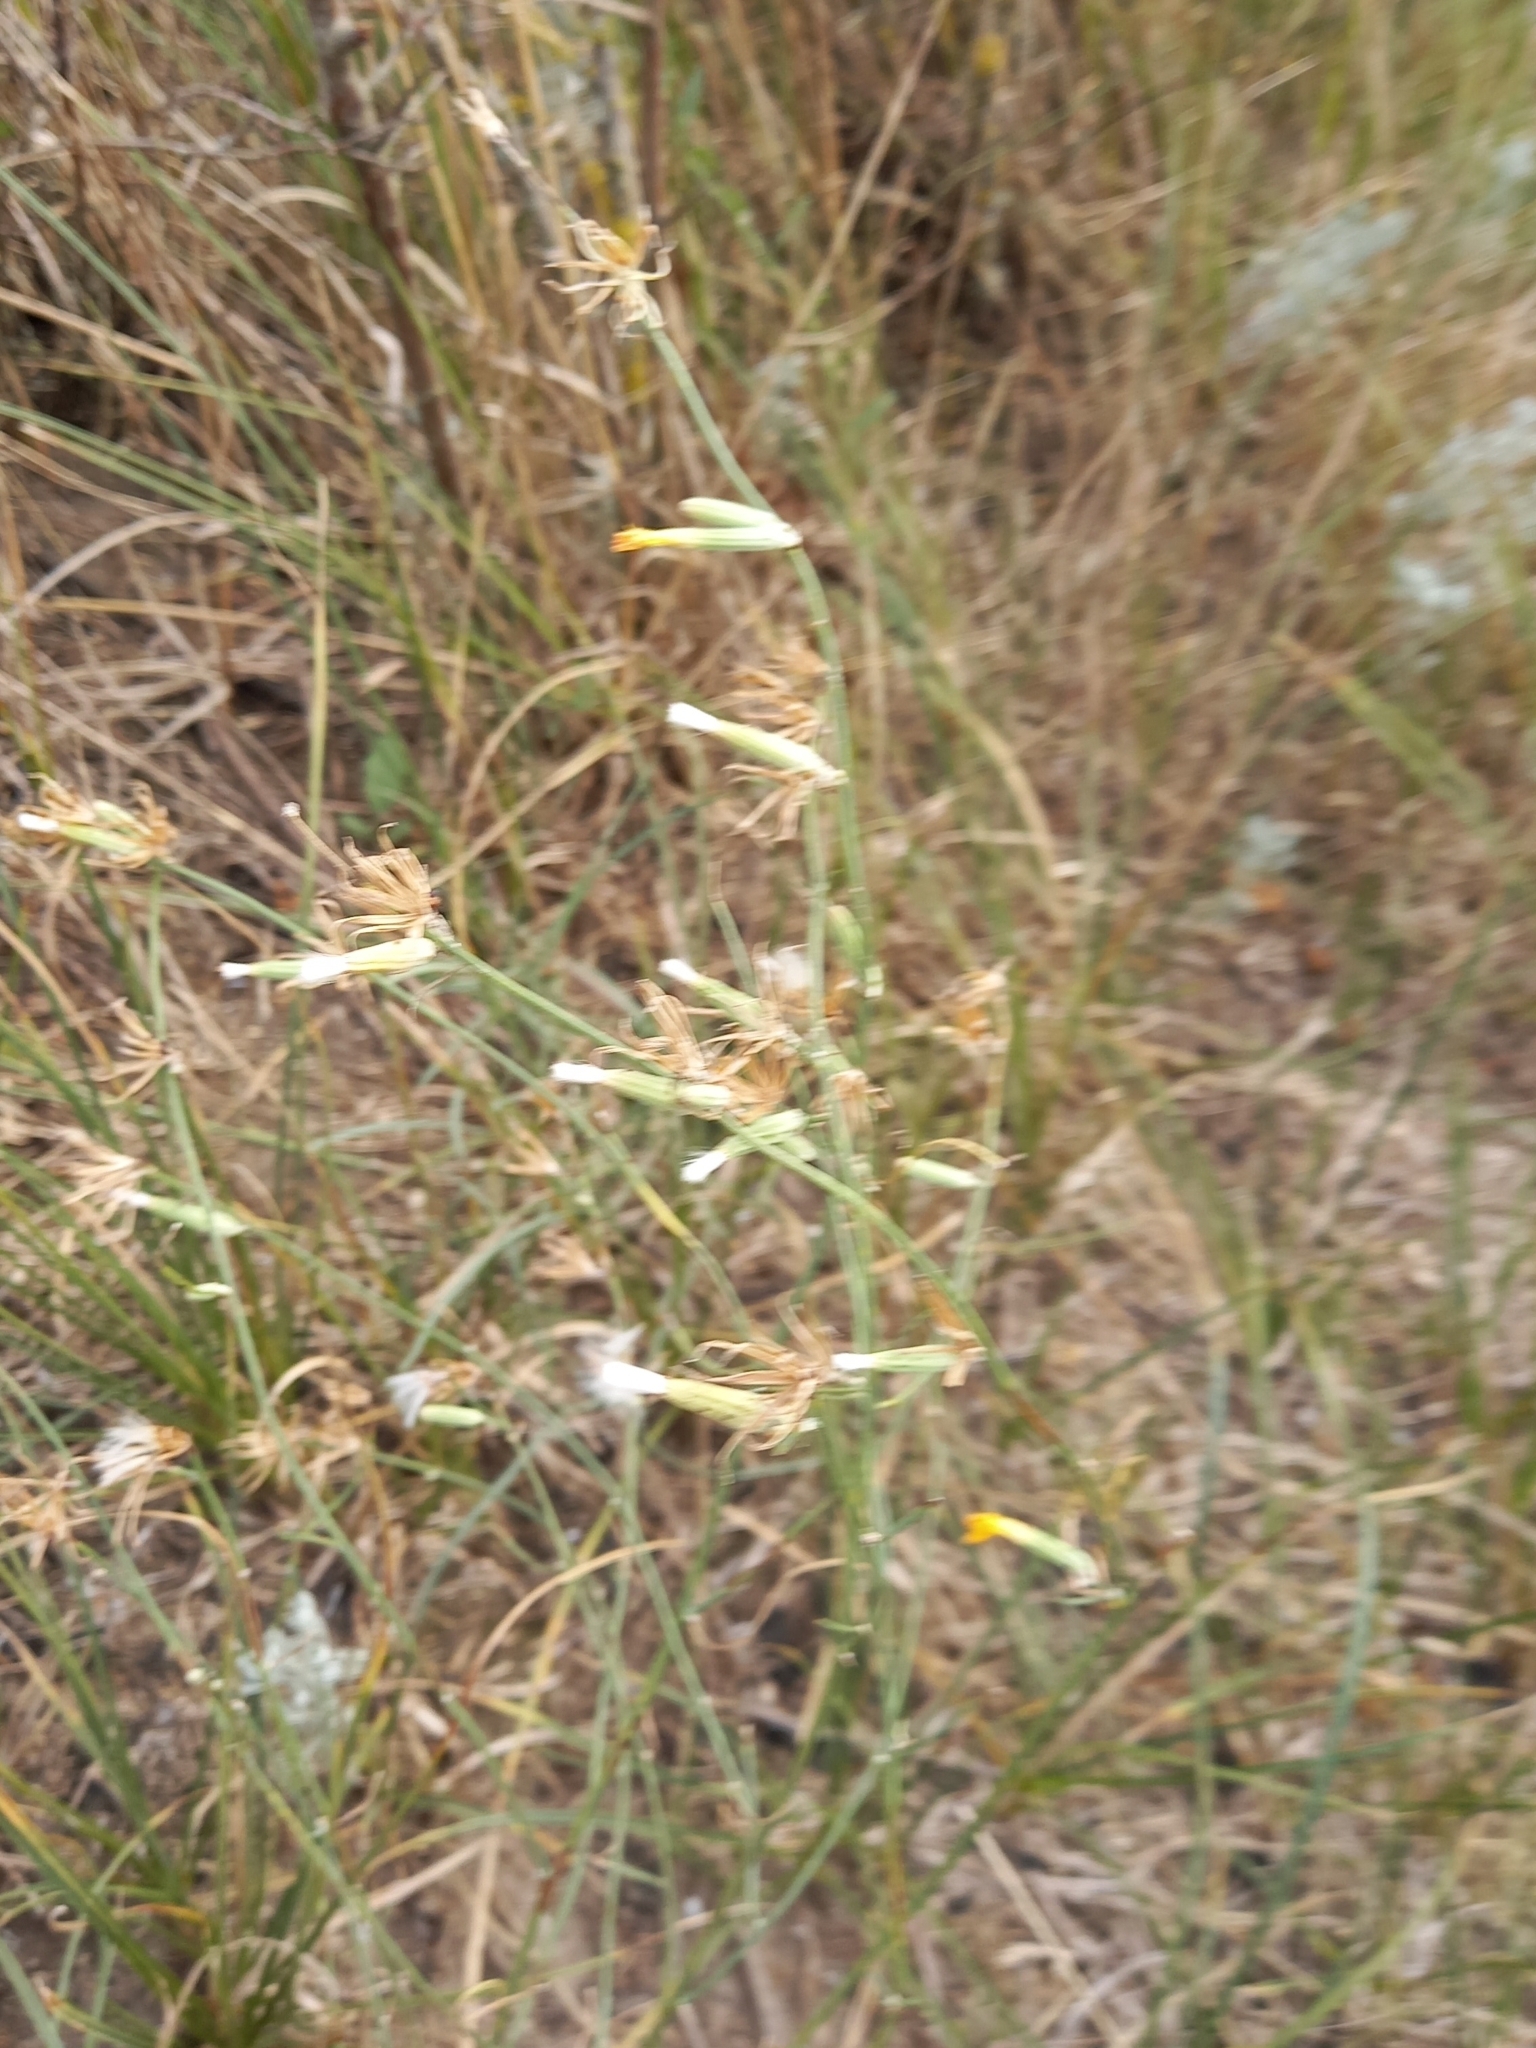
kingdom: Plantae
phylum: Tracheophyta
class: Magnoliopsida
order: Asterales
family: Asteraceae
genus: Chondrilla
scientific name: Chondrilla juncea
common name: Skeleton weed
